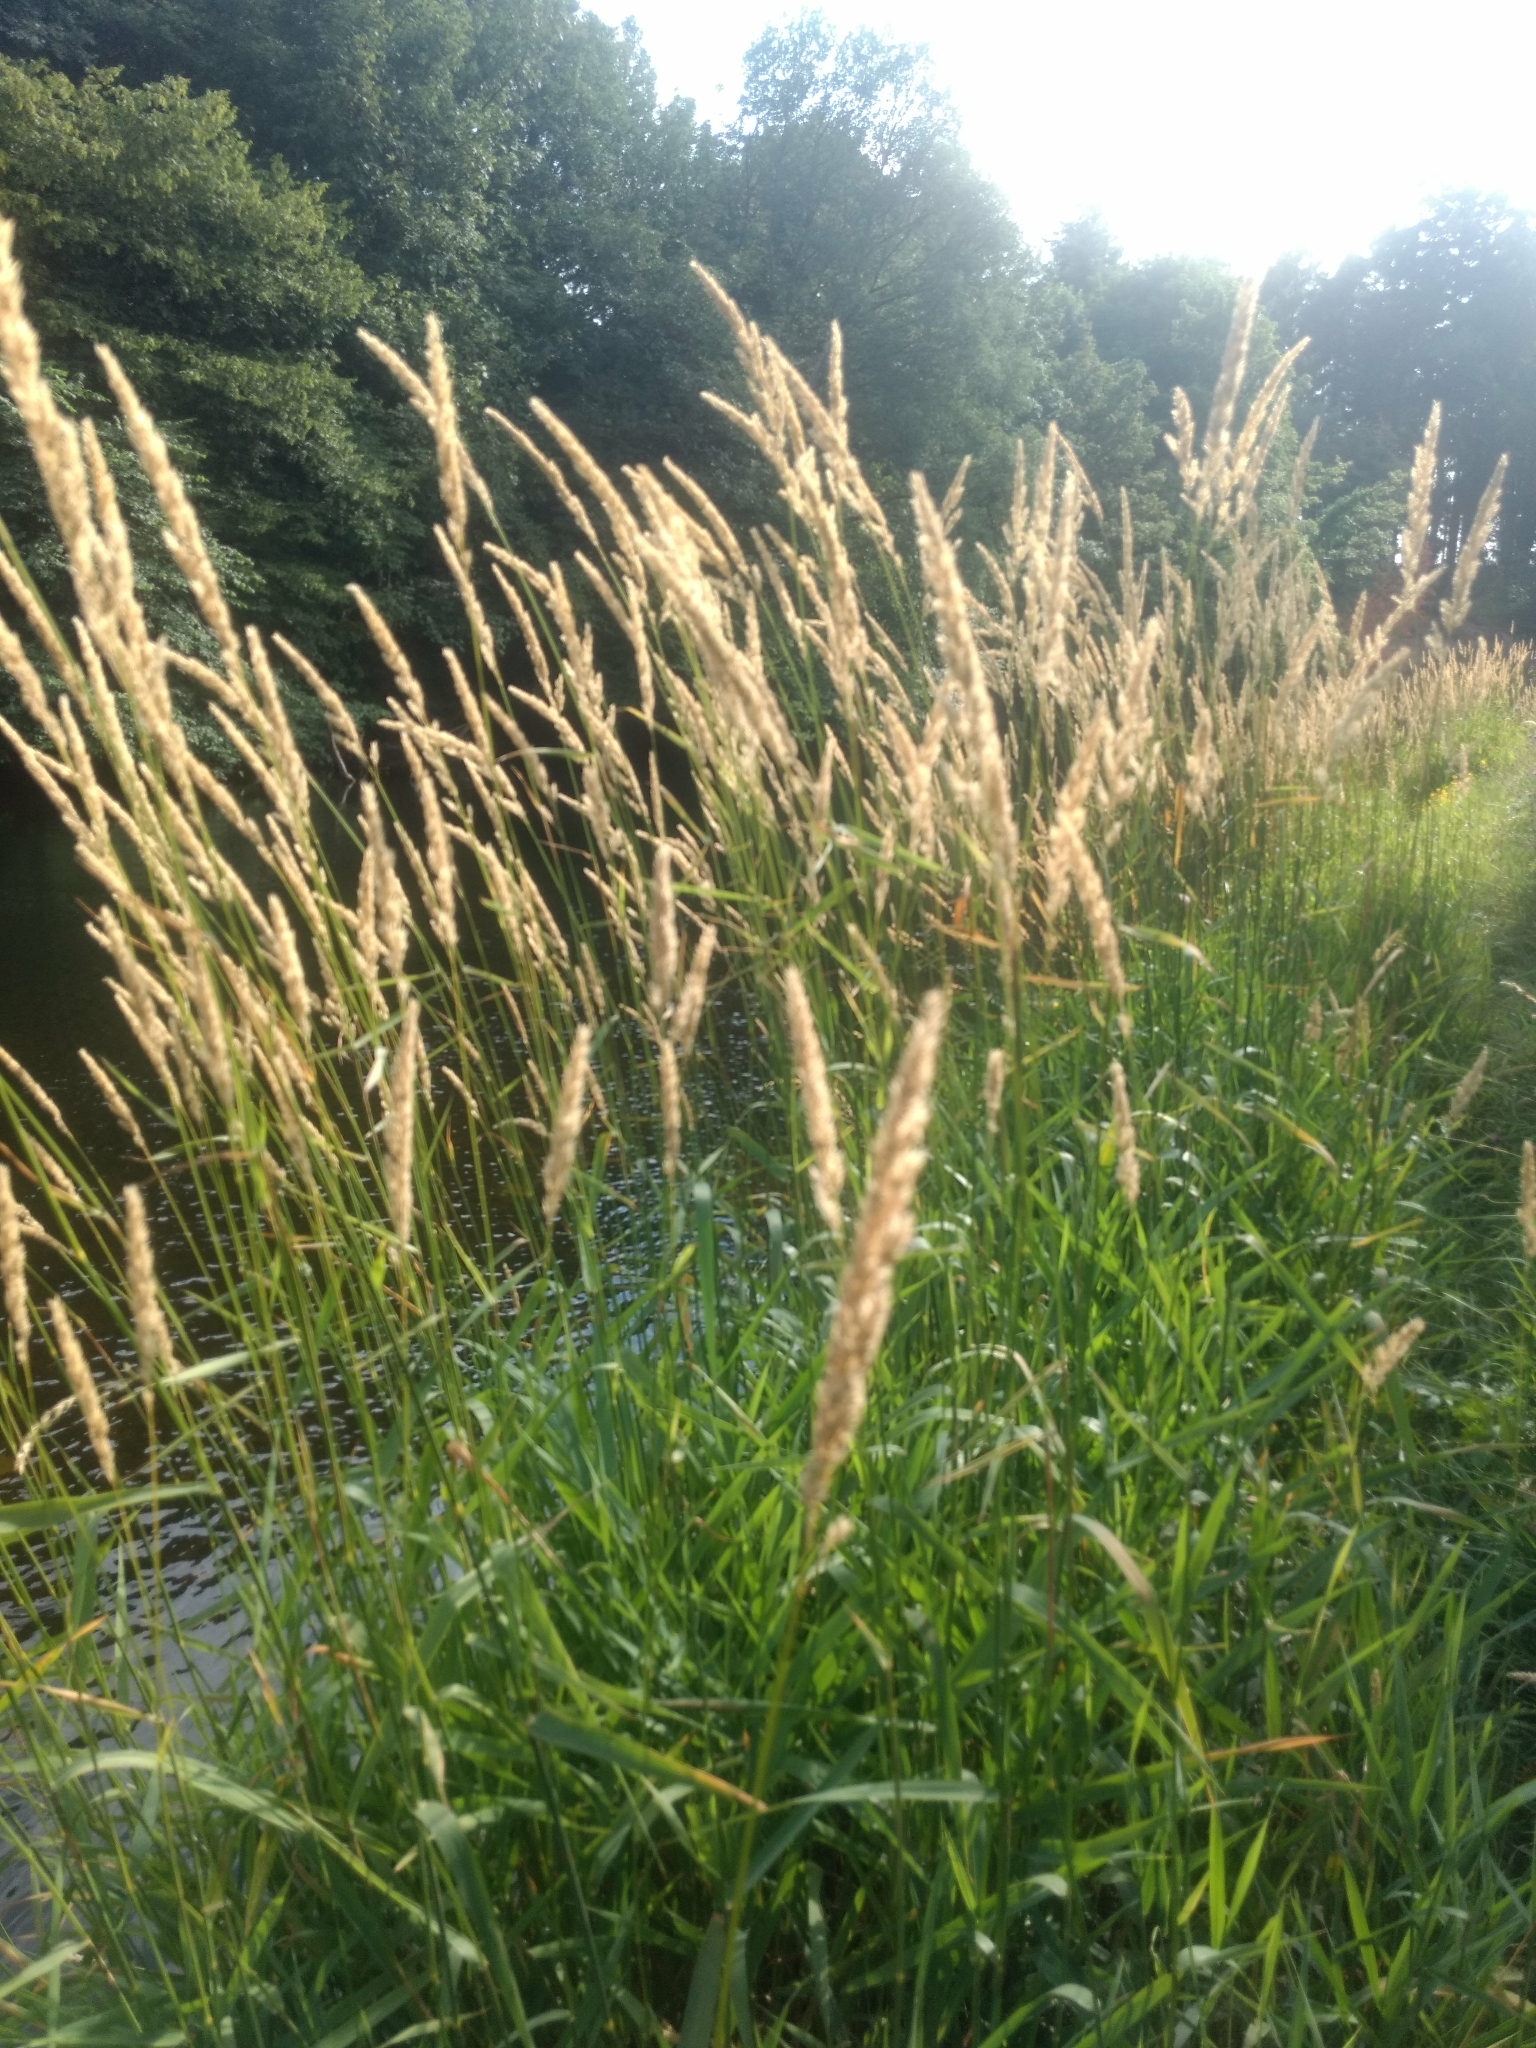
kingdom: Plantae
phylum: Tracheophyta
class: Liliopsida
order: Poales
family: Poaceae
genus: Phalaris
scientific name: Phalaris arundinacea
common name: Reed canary-grass
